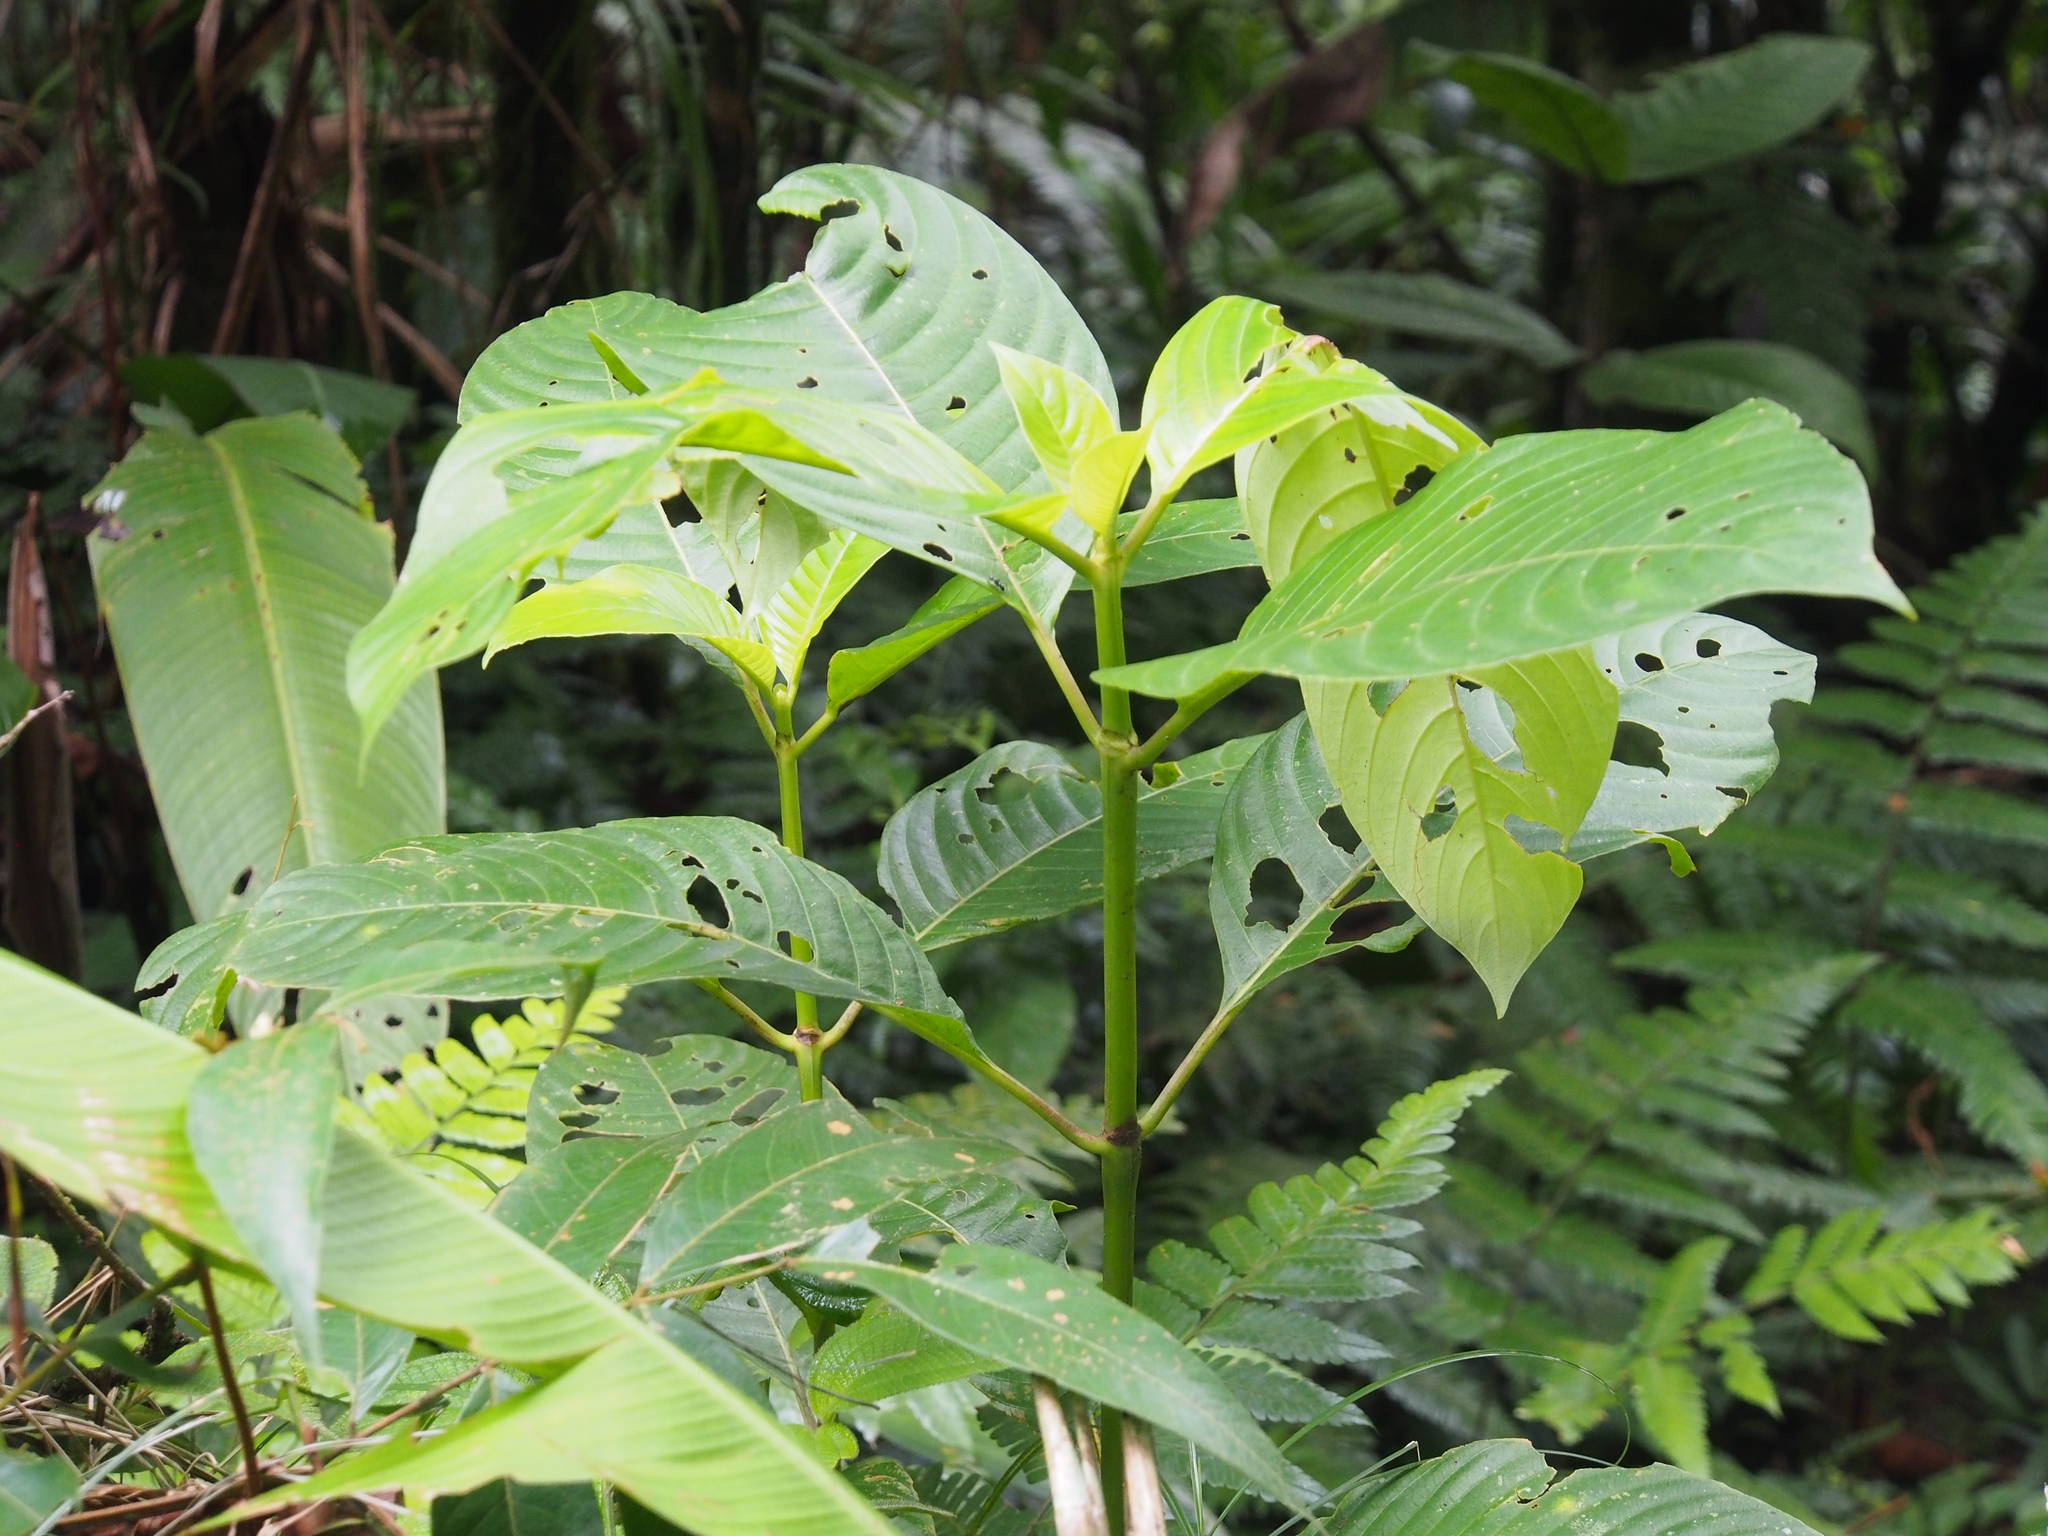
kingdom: Plantae
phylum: Tracheophyta
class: Magnoliopsida
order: Gentianales
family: Rubiaceae
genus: Palicourea
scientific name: Palicourea luxurians
